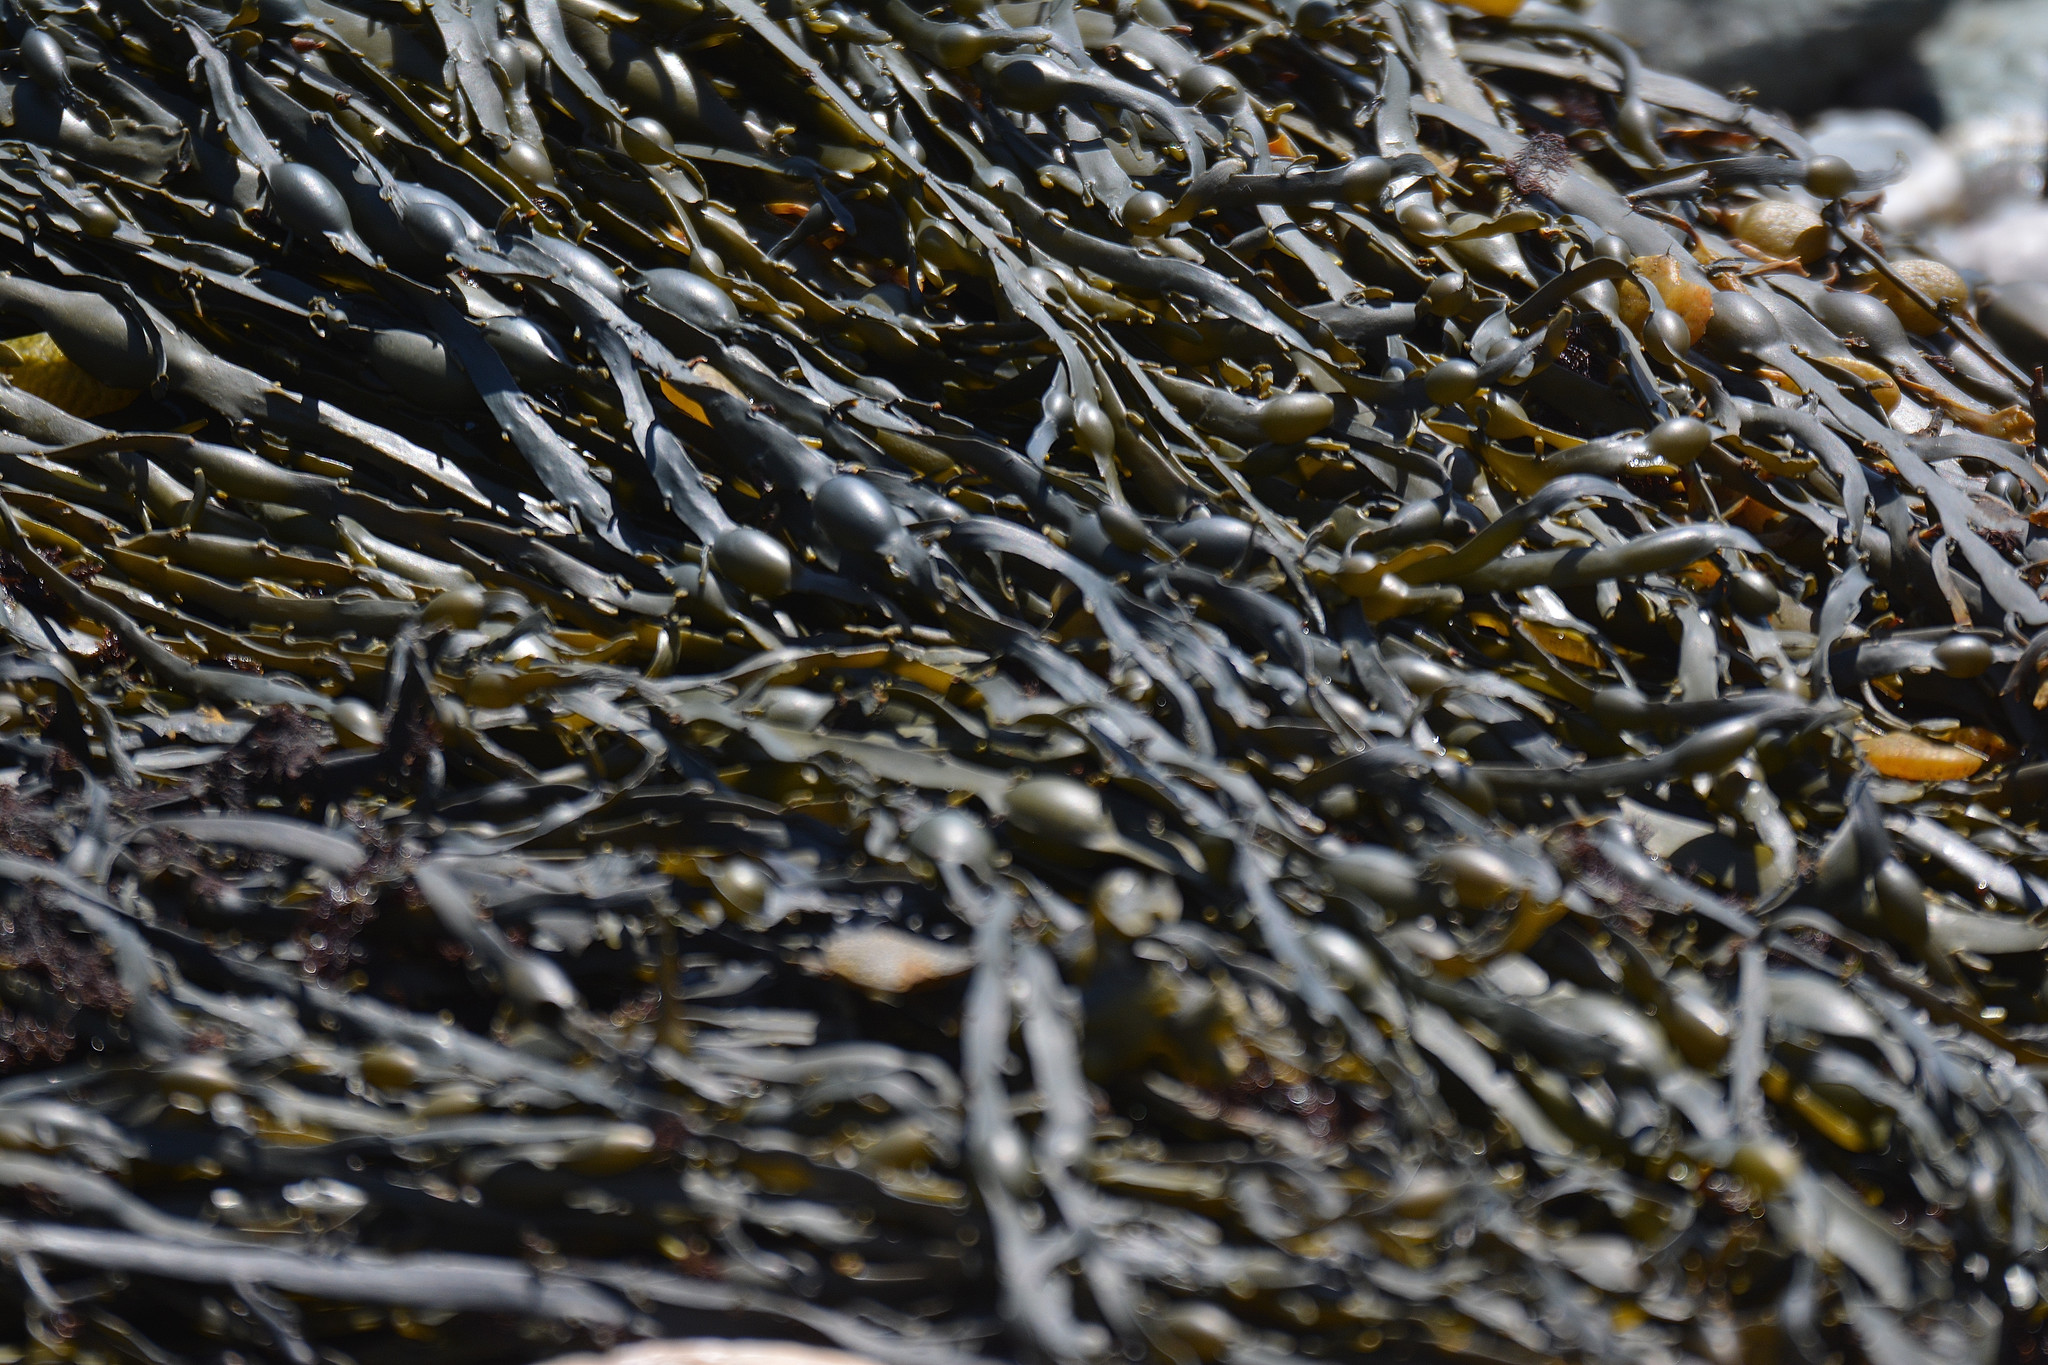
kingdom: Chromista
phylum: Ochrophyta
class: Phaeophyceae
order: Fucales
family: Fucaceae
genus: Ascophyllum
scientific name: Ascophyllum nodosum
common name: Knotted wrack
